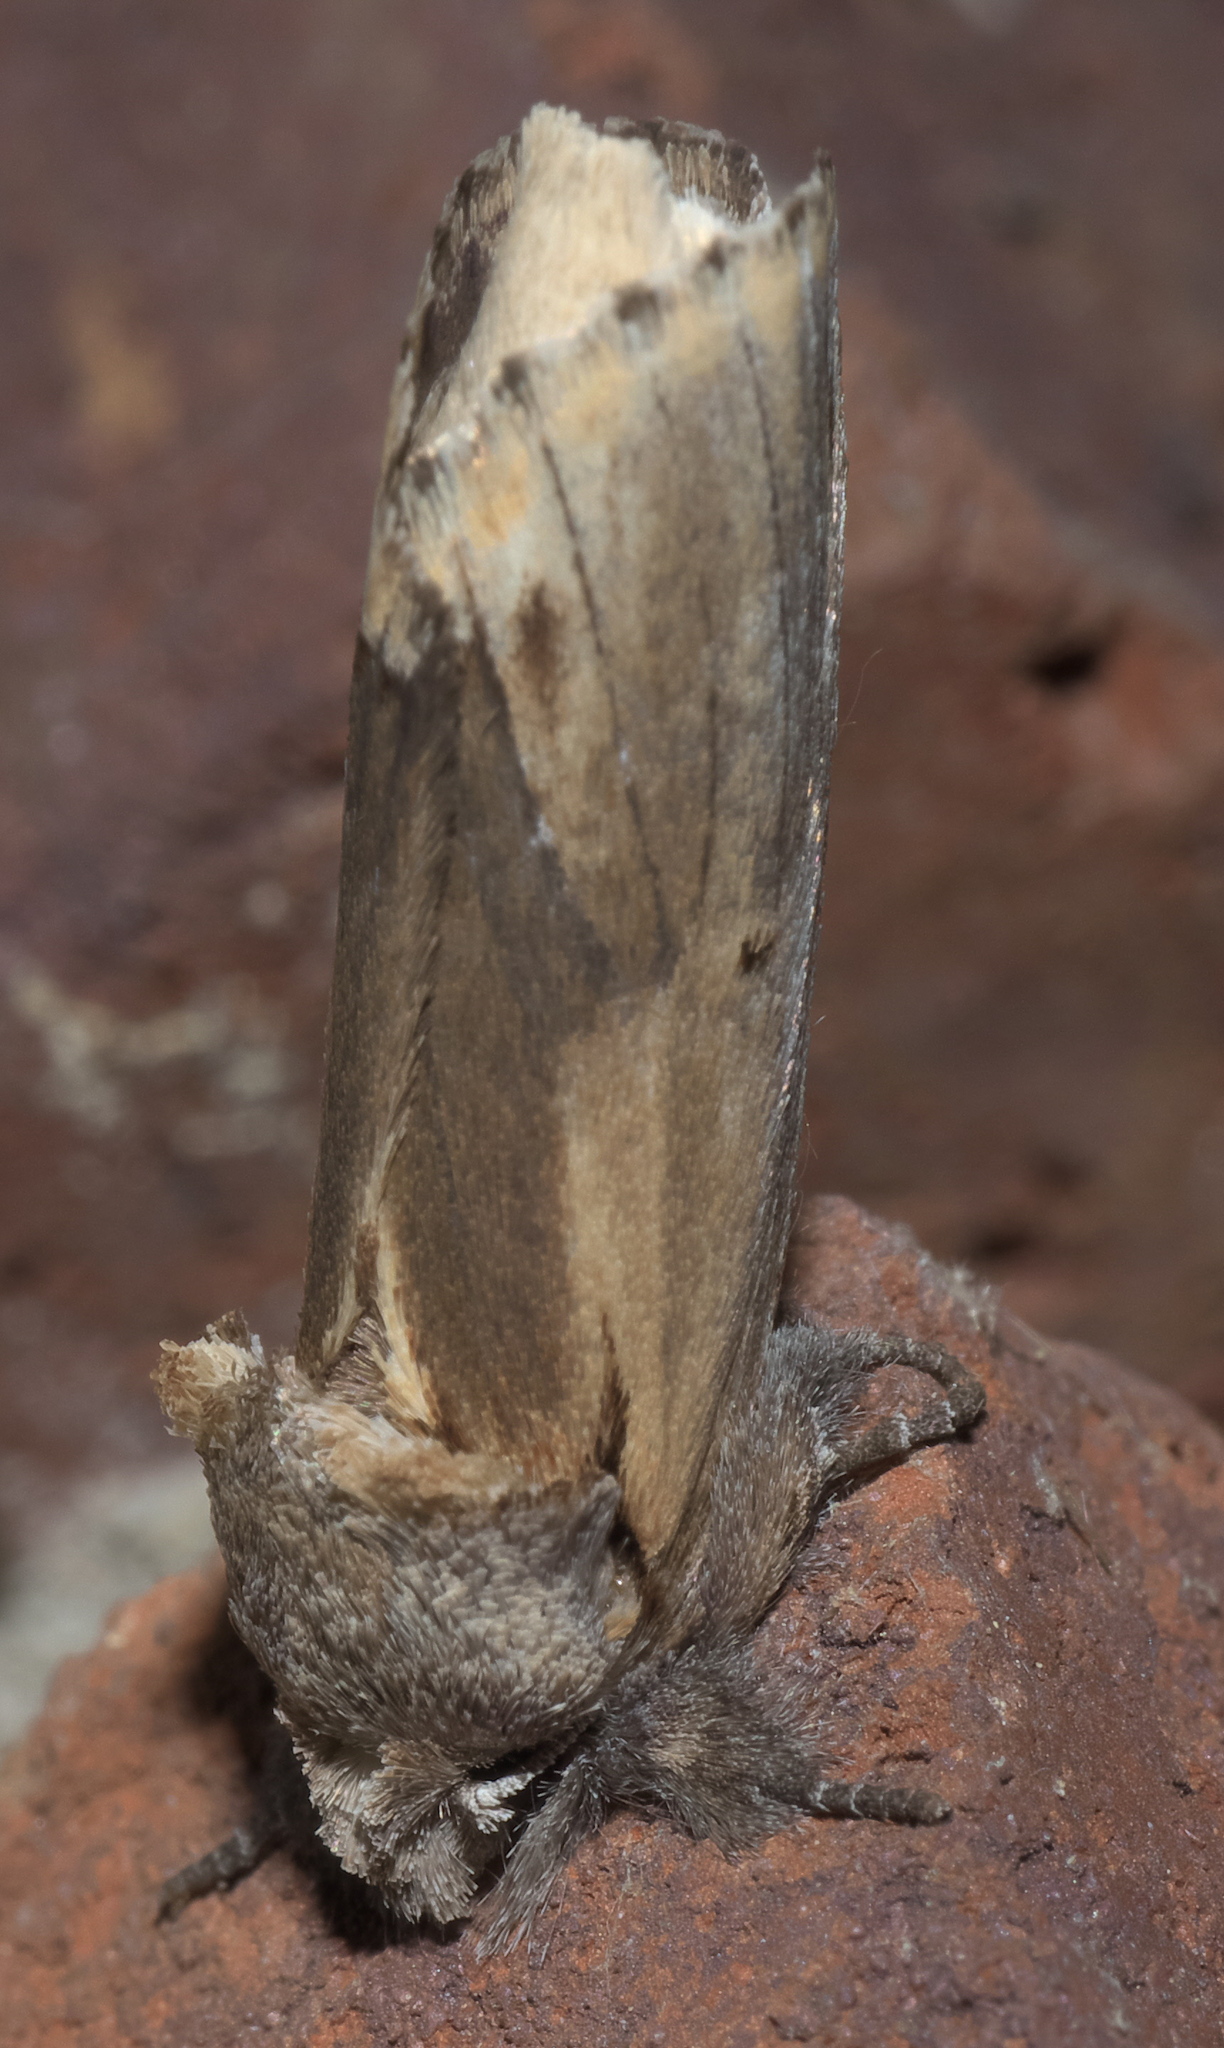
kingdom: Animalia
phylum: Arthropoda
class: Insecta
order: Lepidoptera
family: Notodontidae
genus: Schizura
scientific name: Schizura
